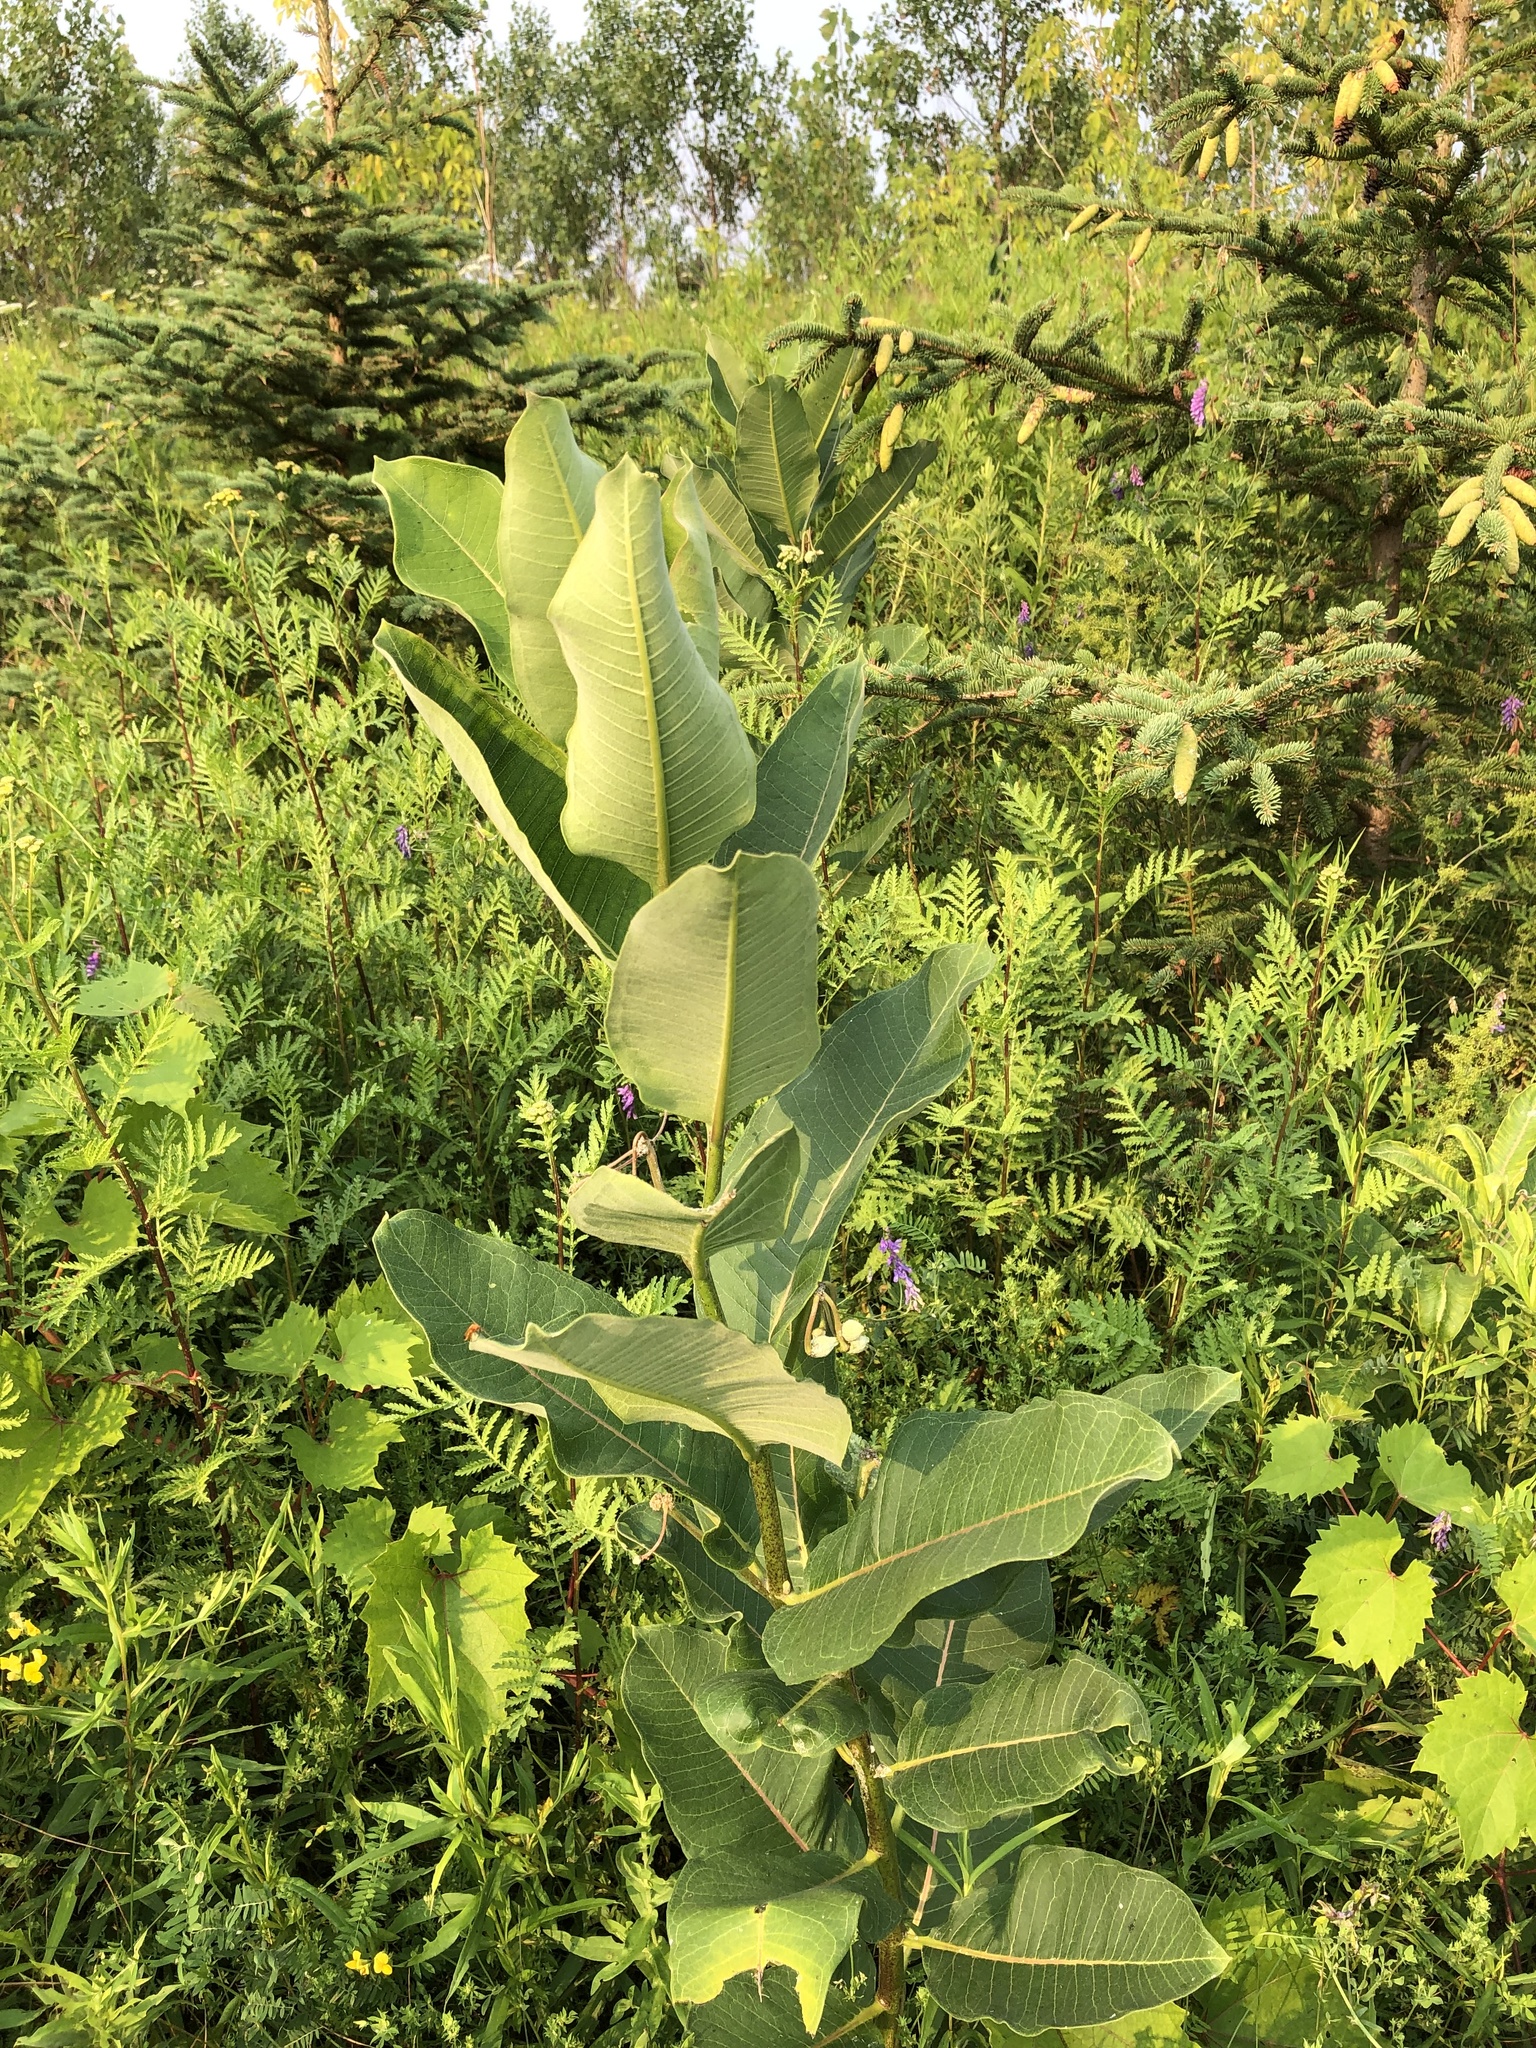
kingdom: Plantae
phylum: Tracheophyta
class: Magnoliopsida
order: Gentianales
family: Apocynaceae
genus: Asclepias
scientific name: Asclepias syriaca
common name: Common milkweed
